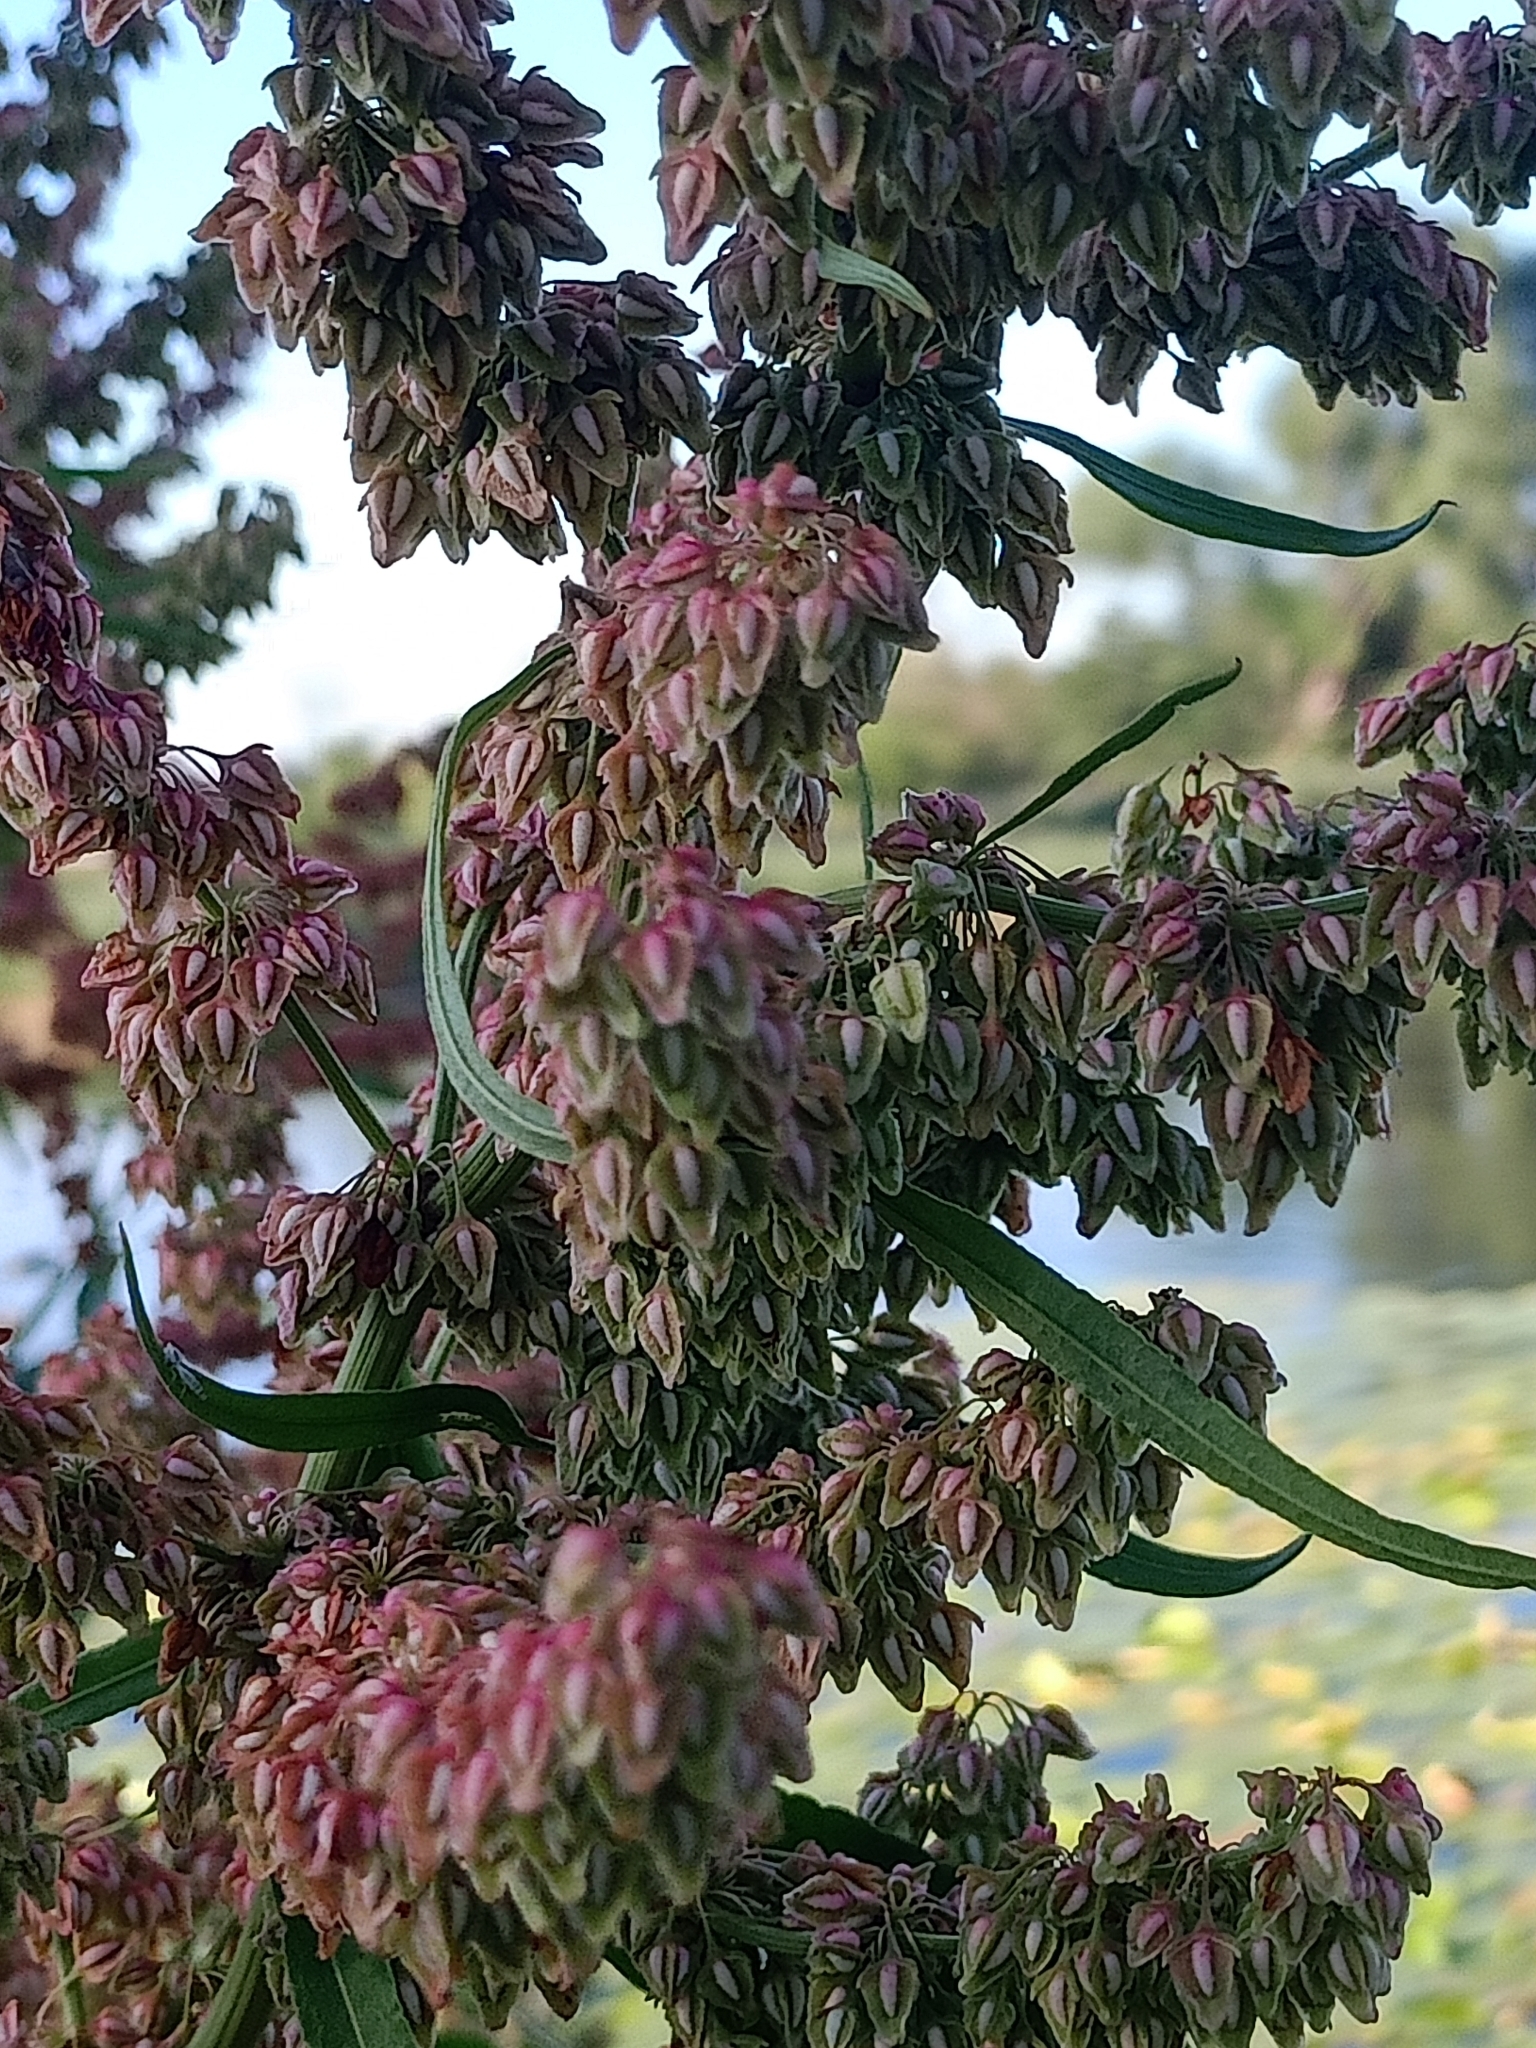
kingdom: Plantae
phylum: Tracheophyta
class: Magnoliopsida
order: Caryophyllales
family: Polygonaceae
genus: Rumex
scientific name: Rumex hydrolapathum
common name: Water dock
